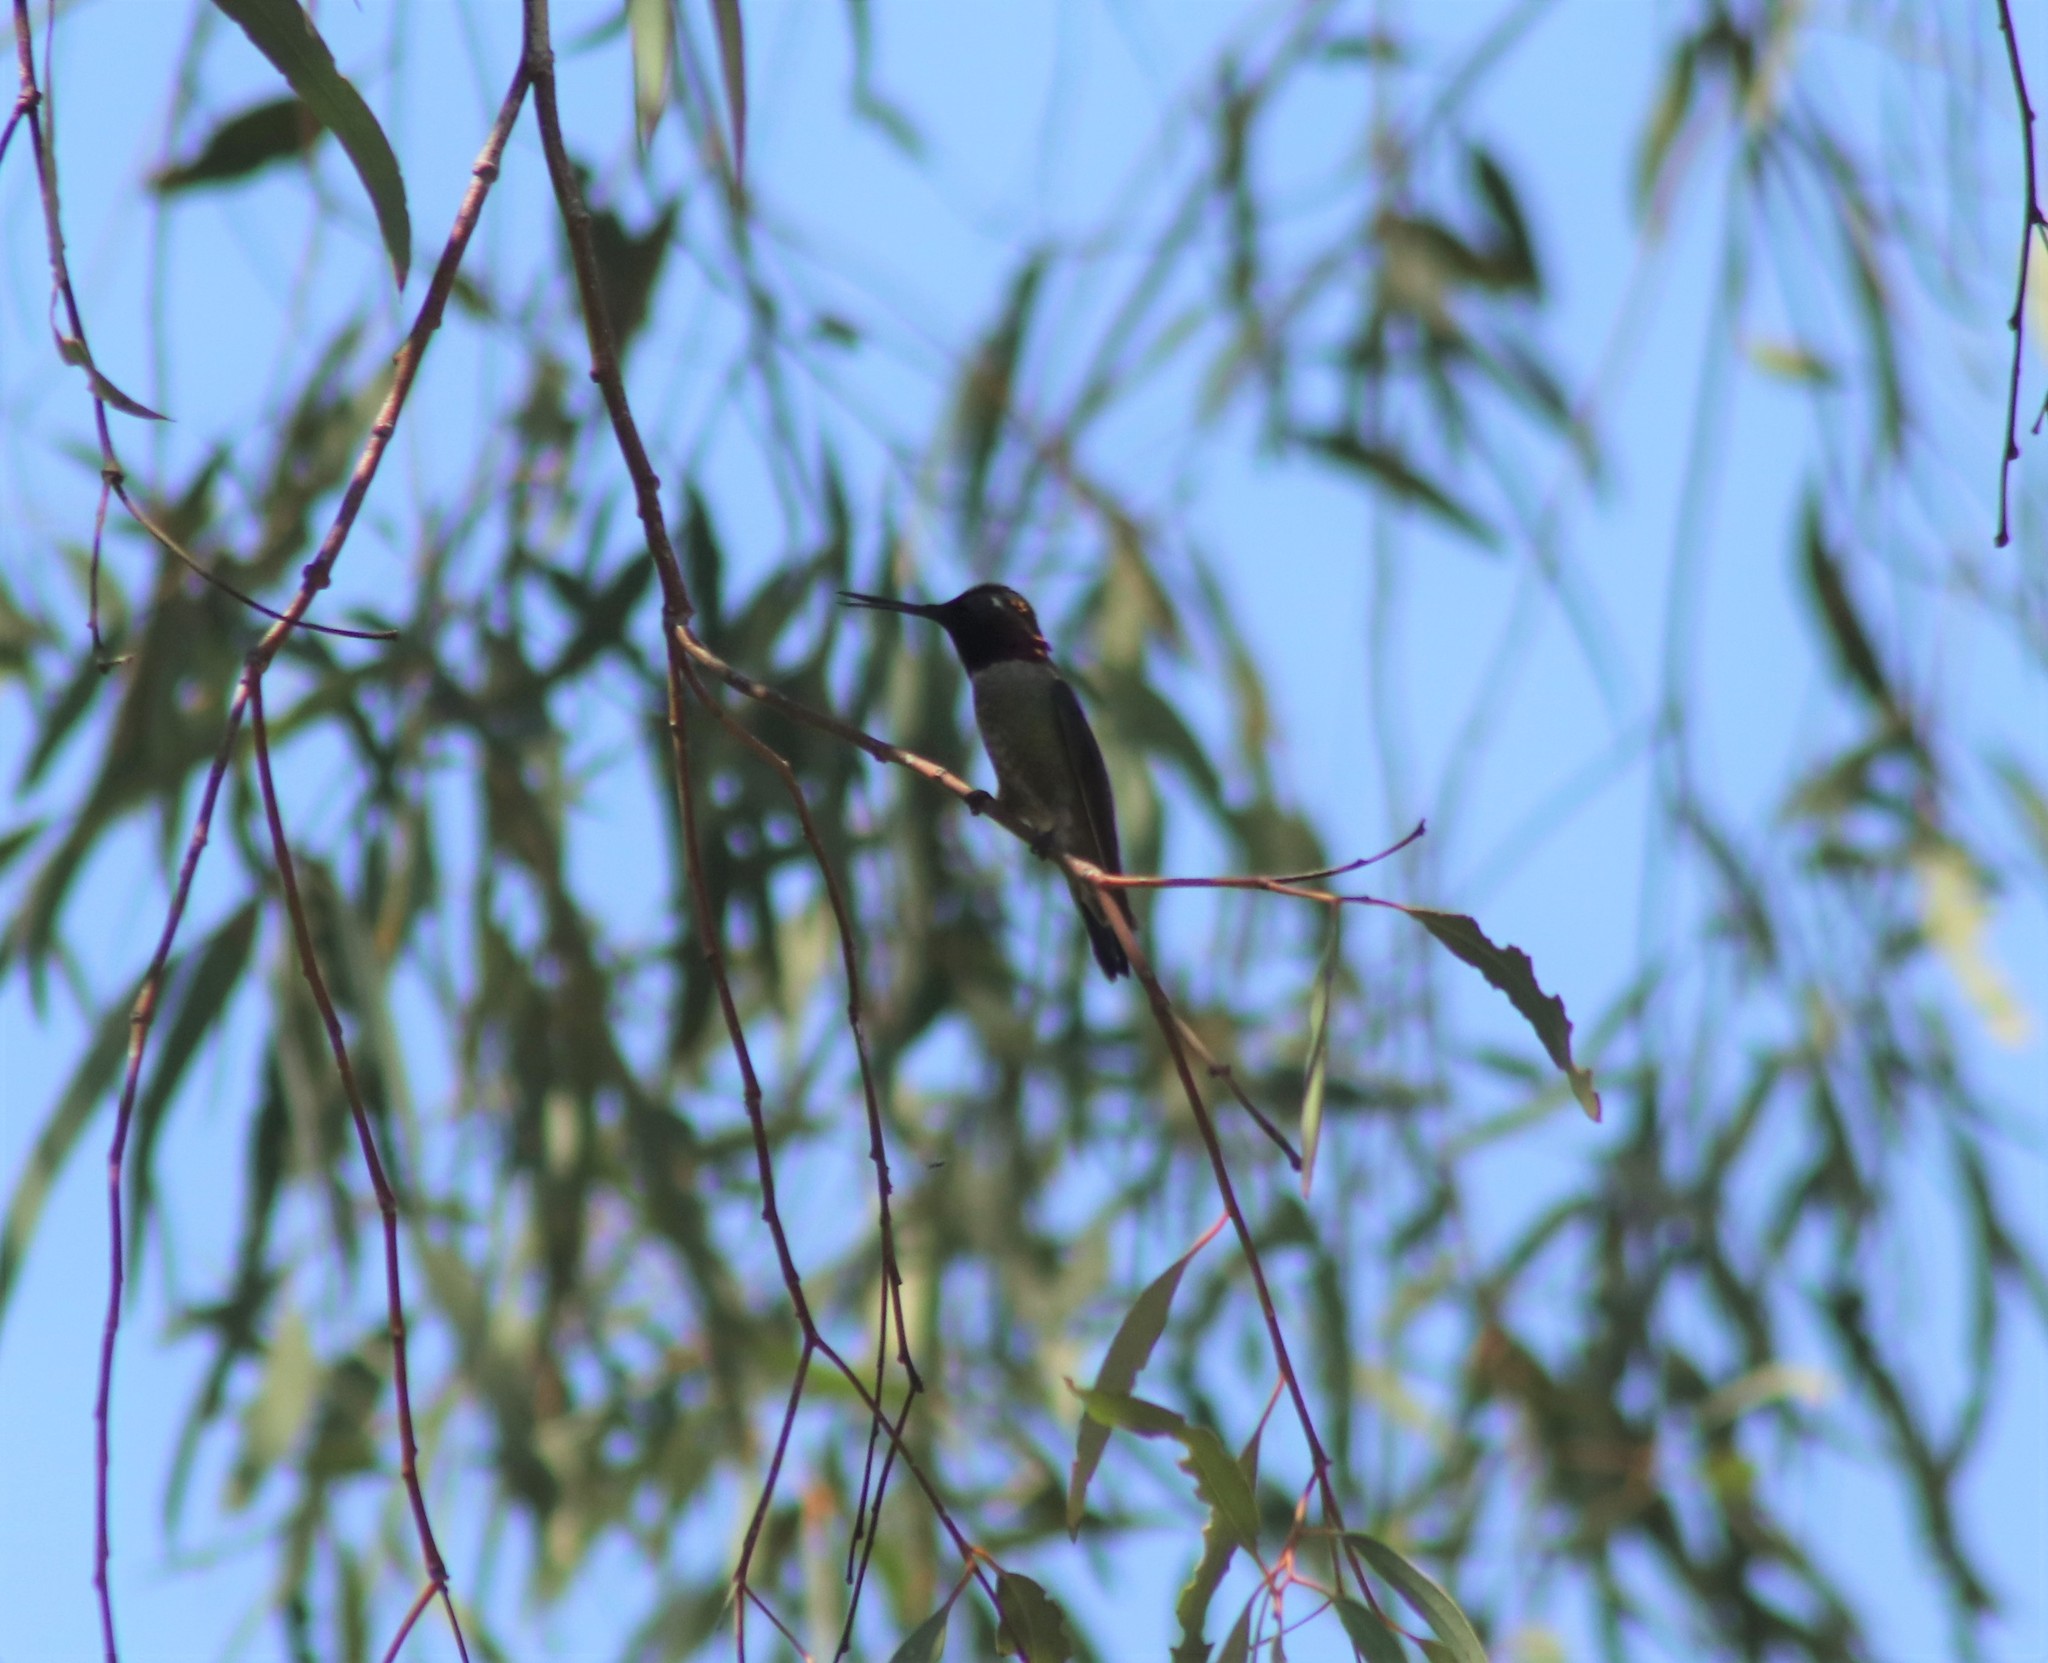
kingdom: Animalia
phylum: Chordata
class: Aves
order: Apodiformes
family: Trochilidae
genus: Calypte
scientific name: Calypte anna
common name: Anna's hummingbird
